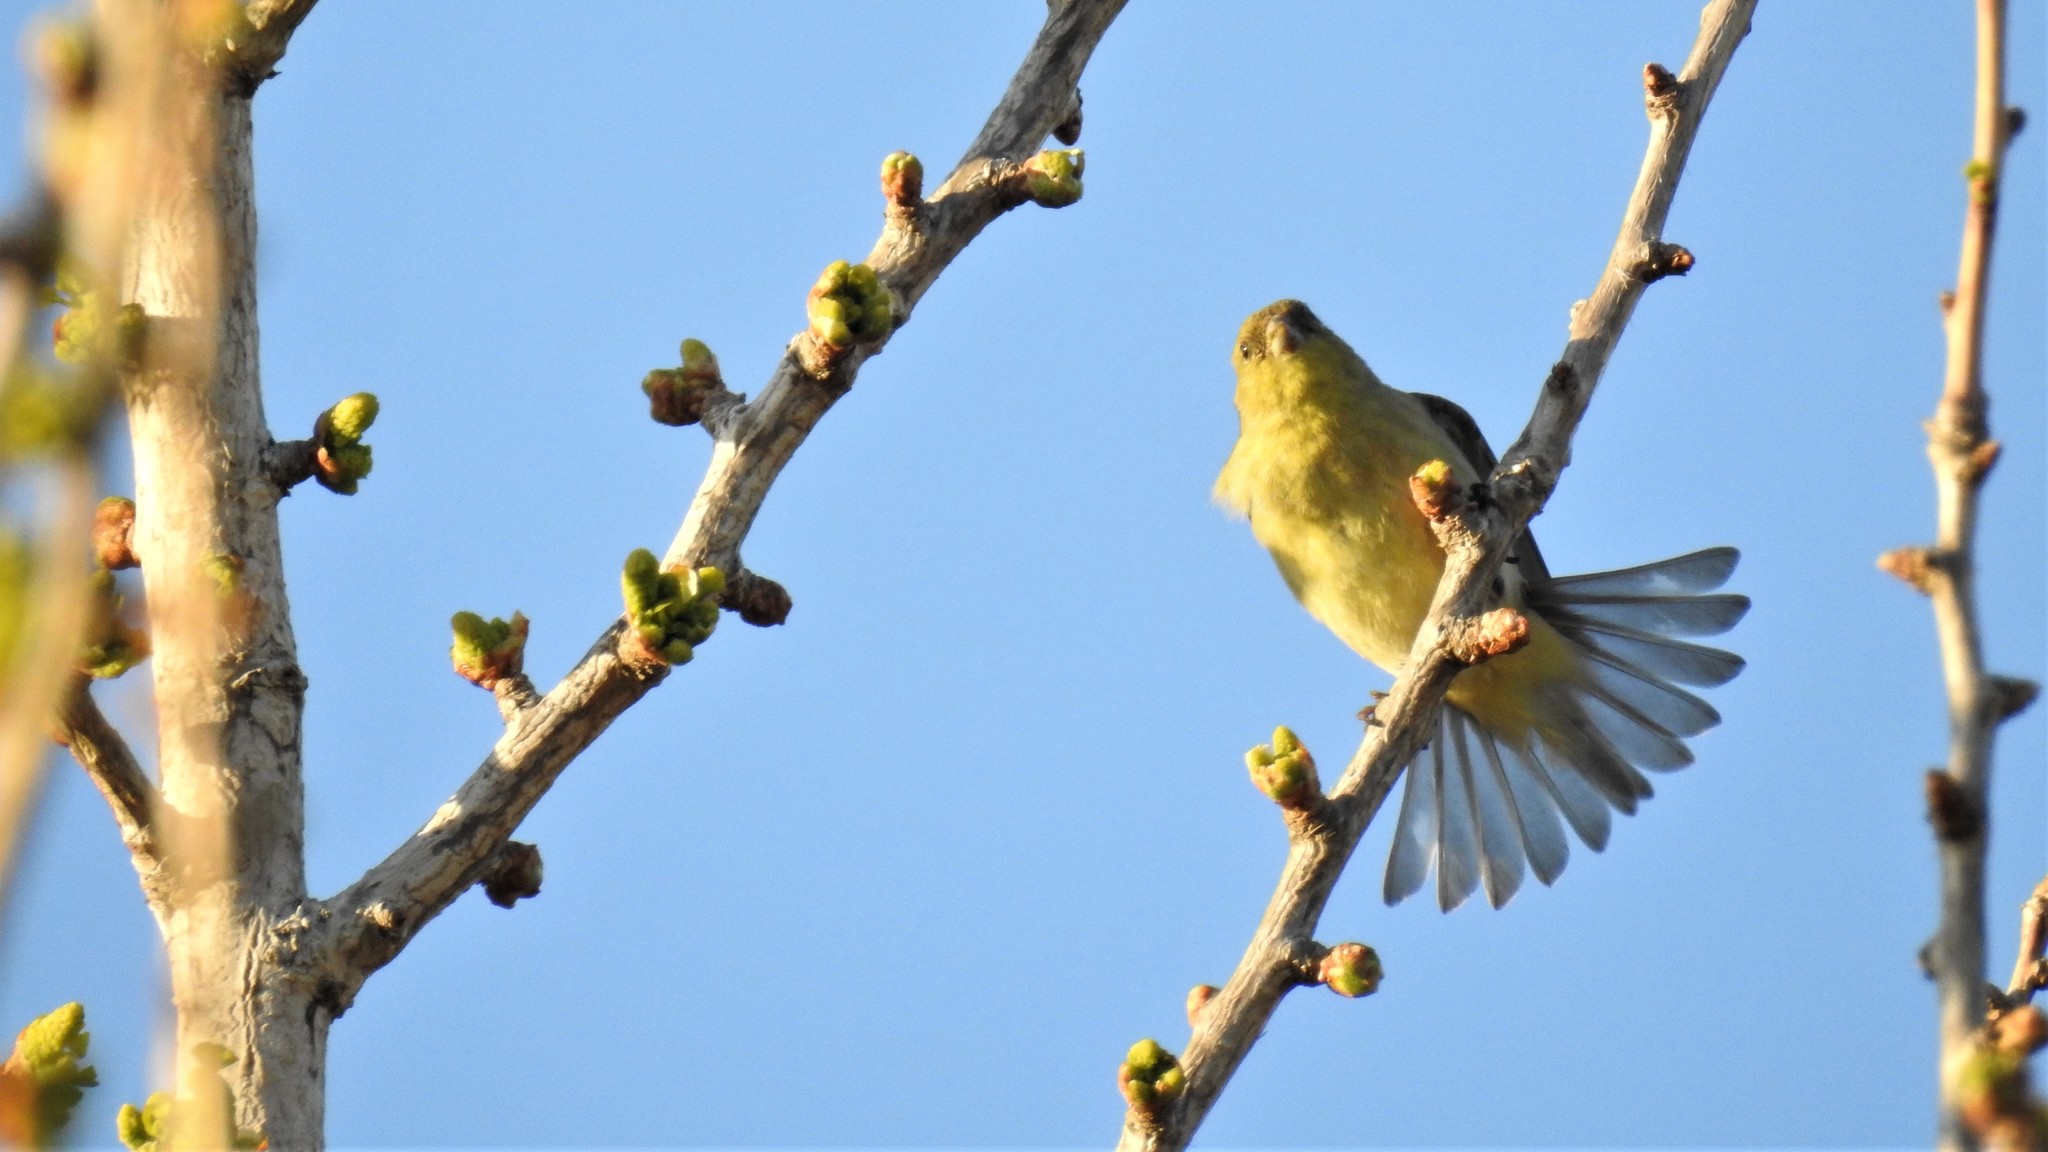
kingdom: Animalia
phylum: Chordata
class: Aves
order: Passeriformes
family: Fringillidae
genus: Spinus
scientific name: Spinus psaltria
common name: Lesser goldfinch
